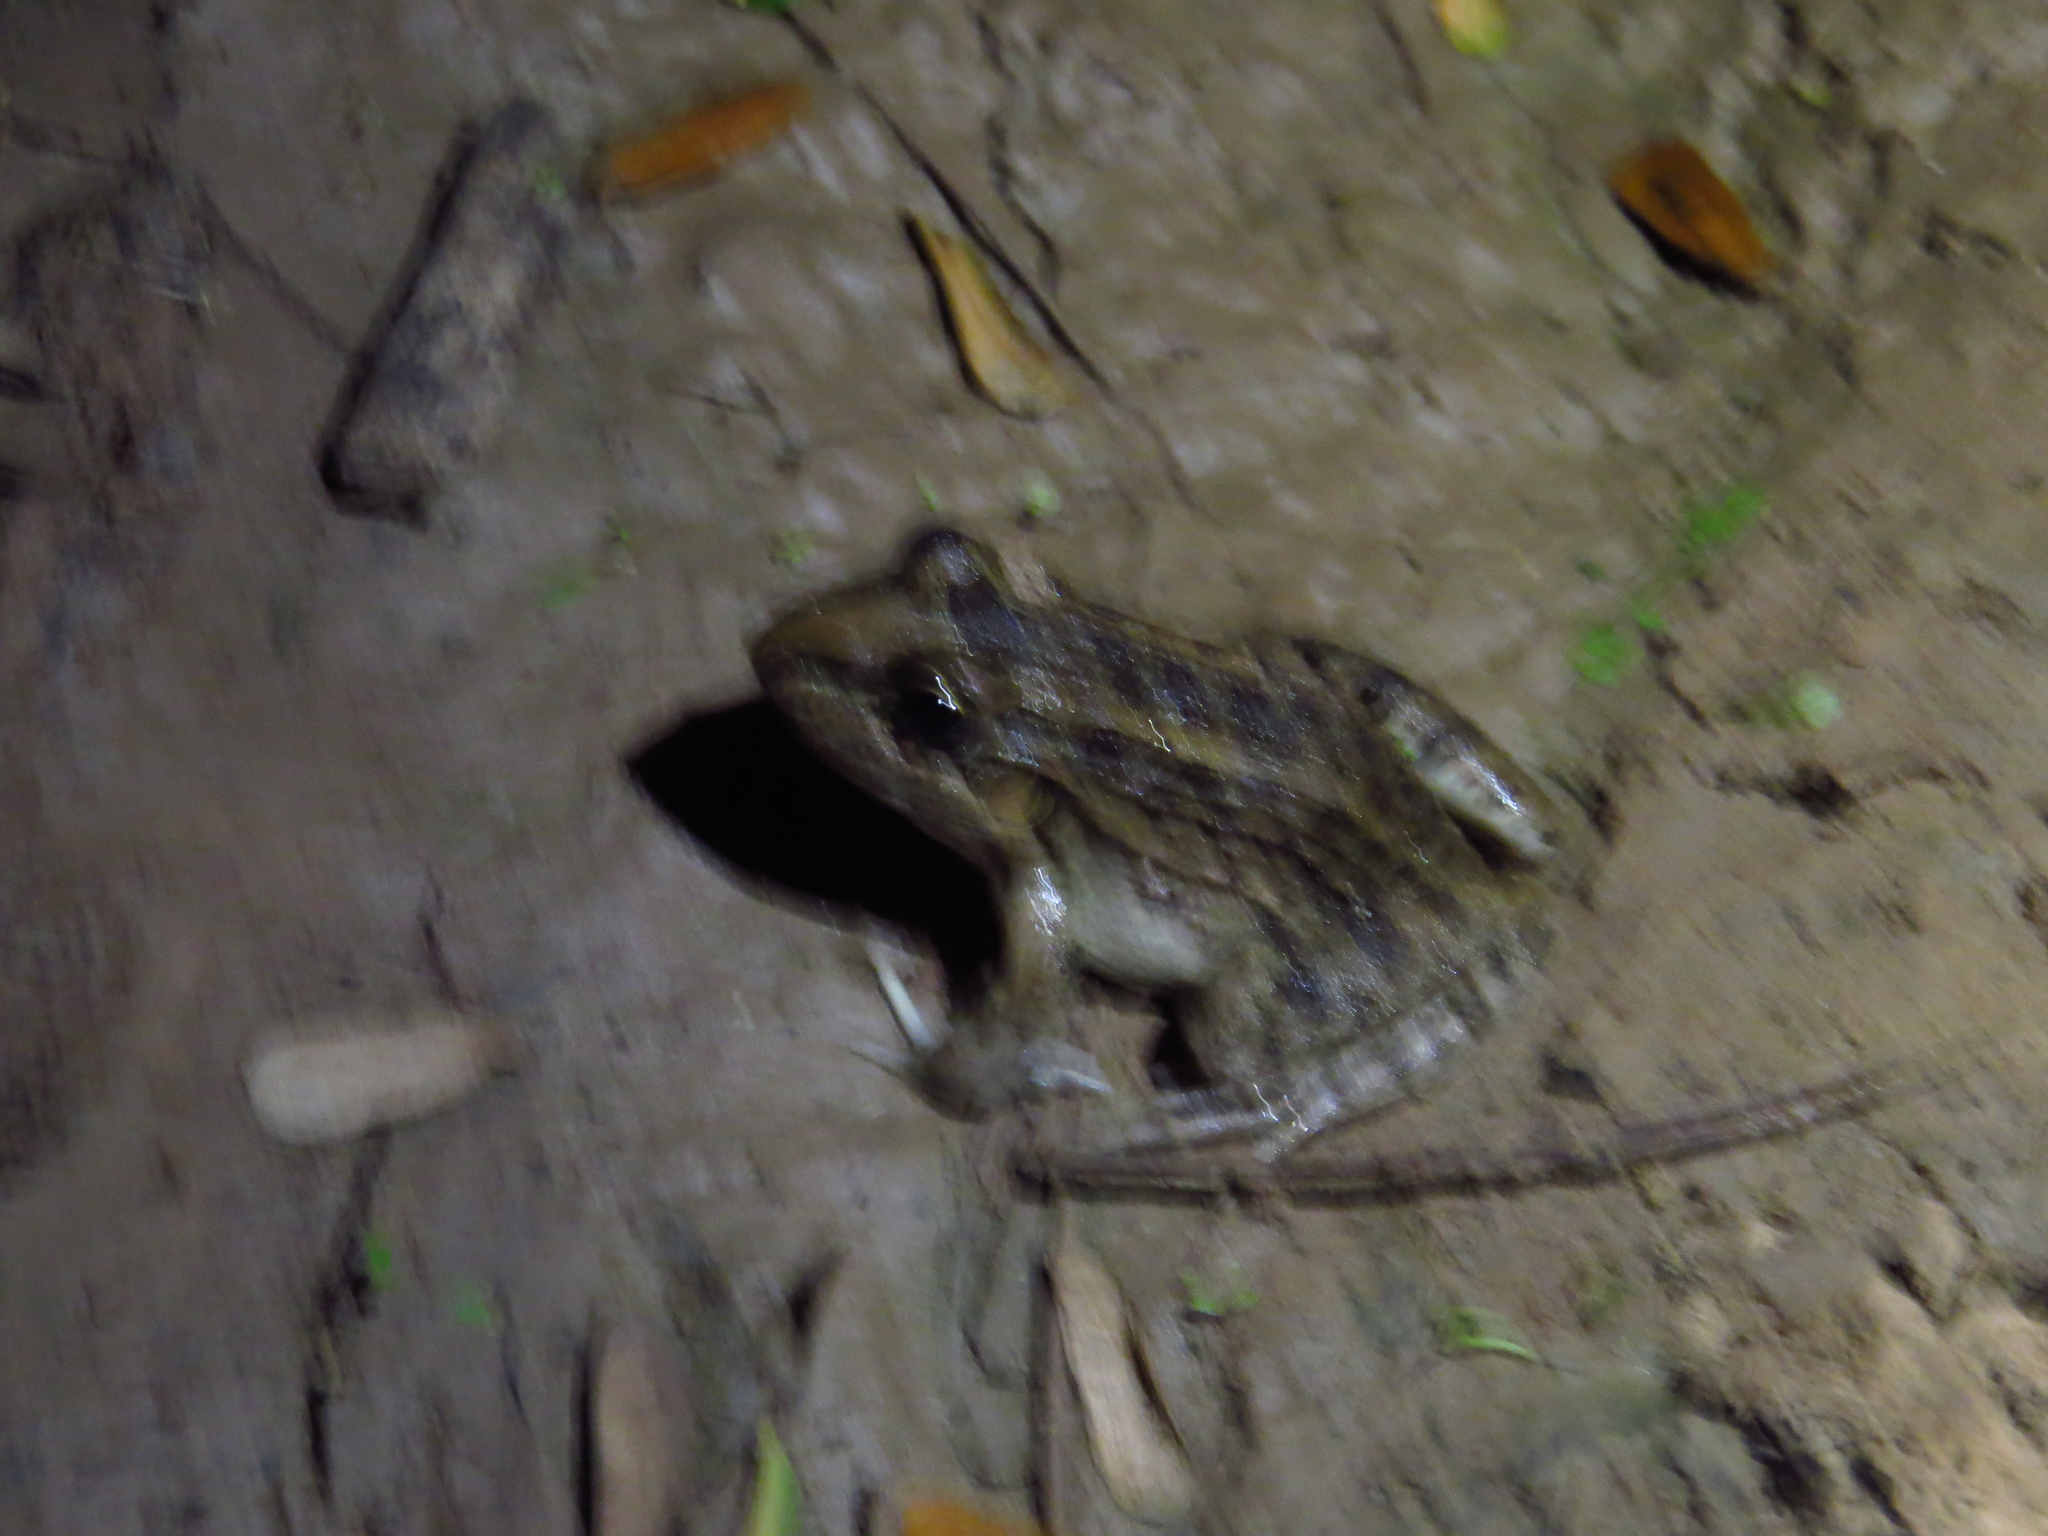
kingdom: Animalia
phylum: Chordata
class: Amphibia
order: Anura
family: Leptodactylidae
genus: Leptodactylus
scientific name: Leptodactylus macrosternum
